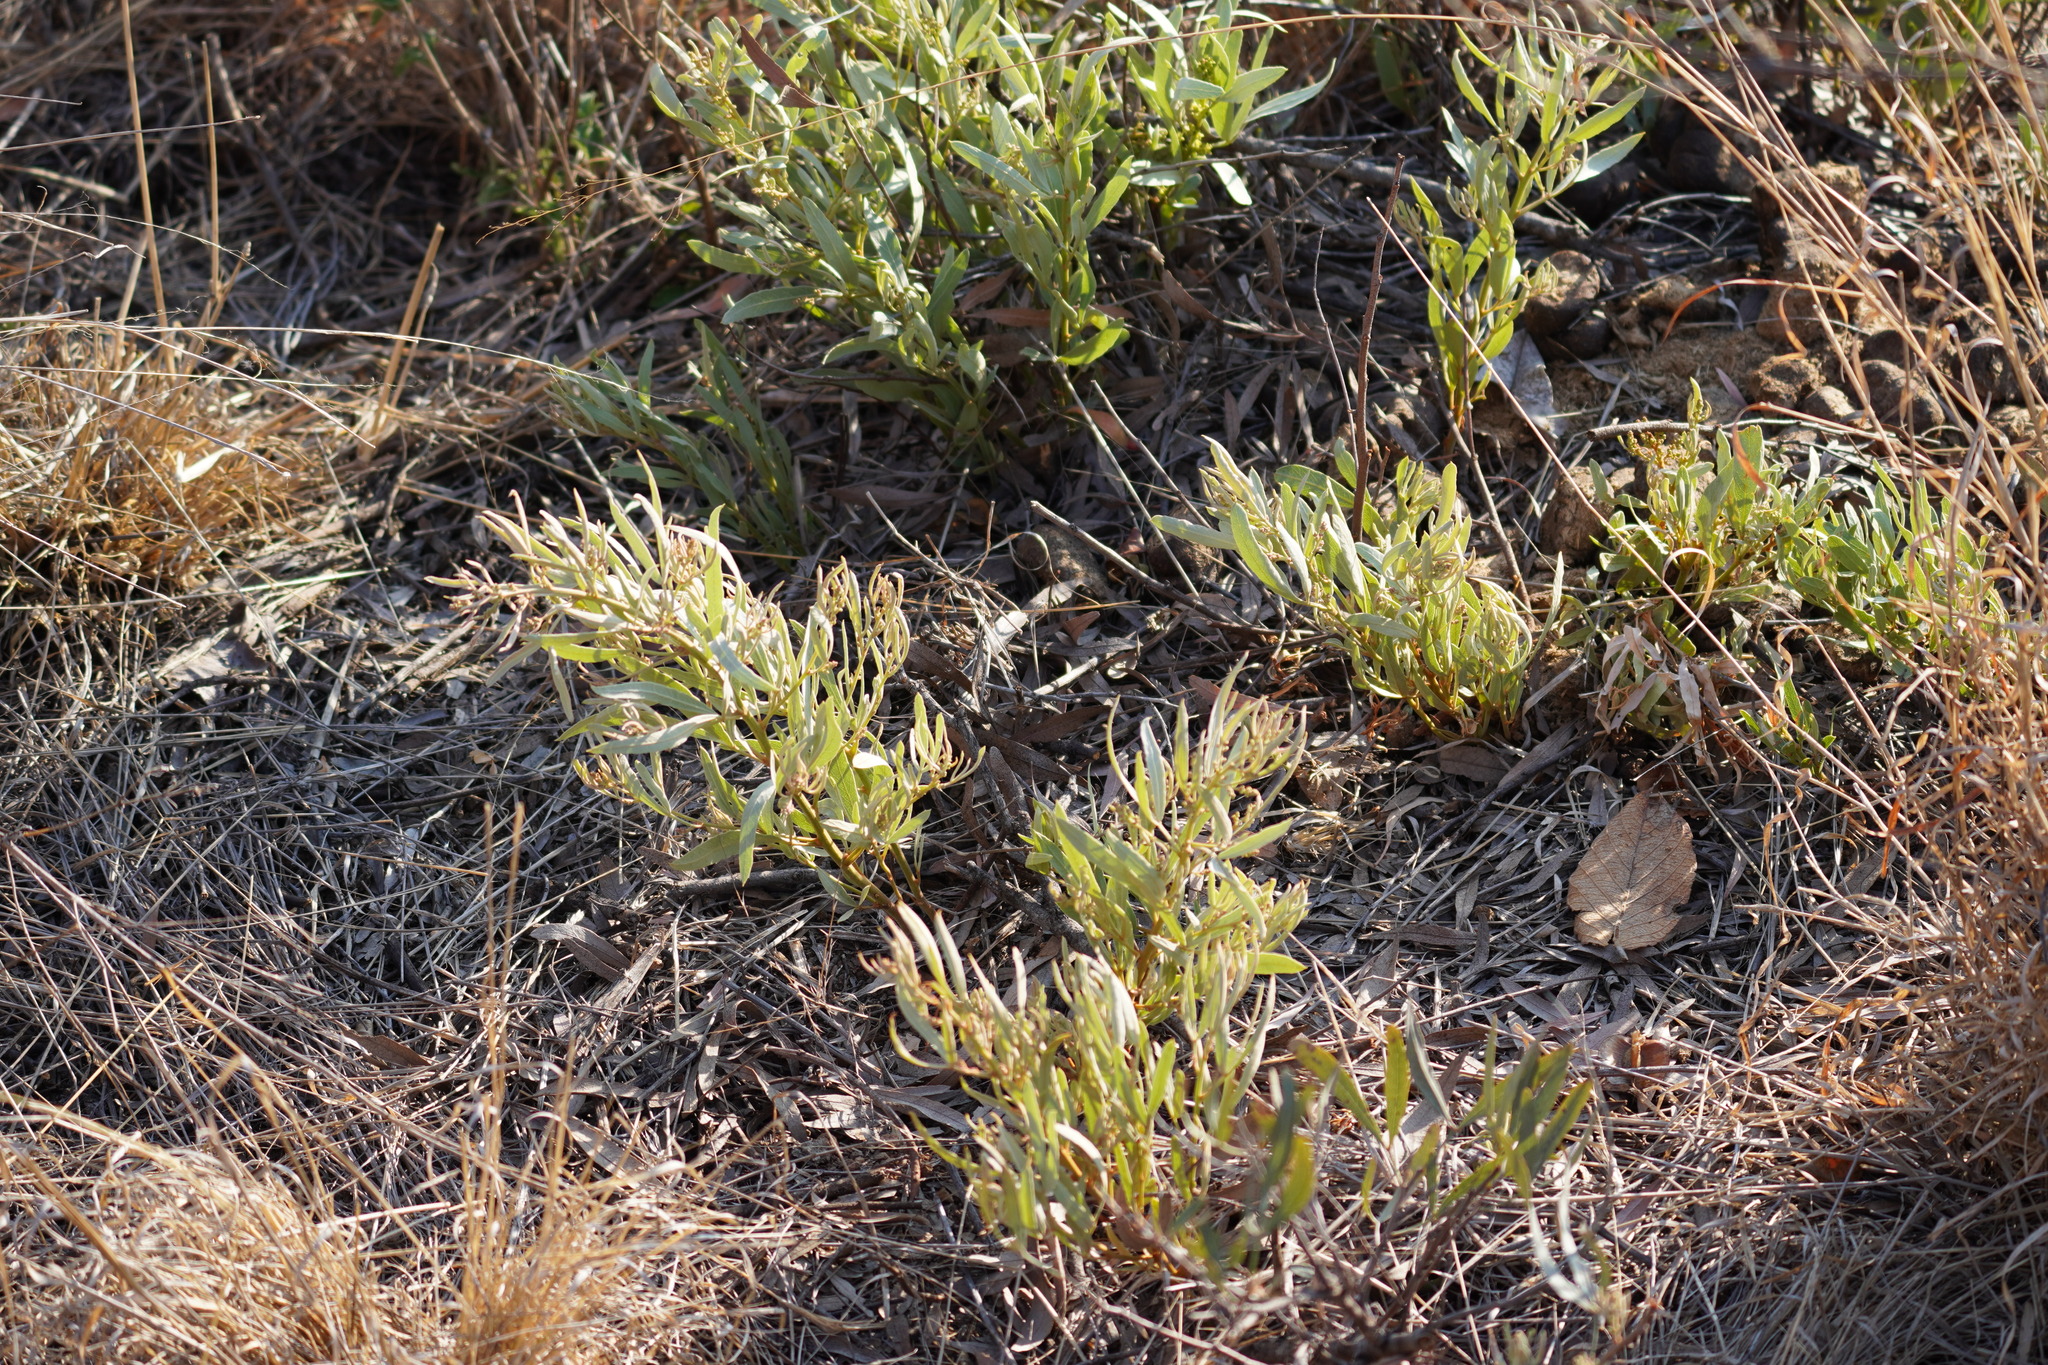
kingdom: Plantae
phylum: Tracheophyta
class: Magnoliopsida
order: Sapindales
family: Anacardiaceae
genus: Searsia
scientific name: Searsia magalismontana
